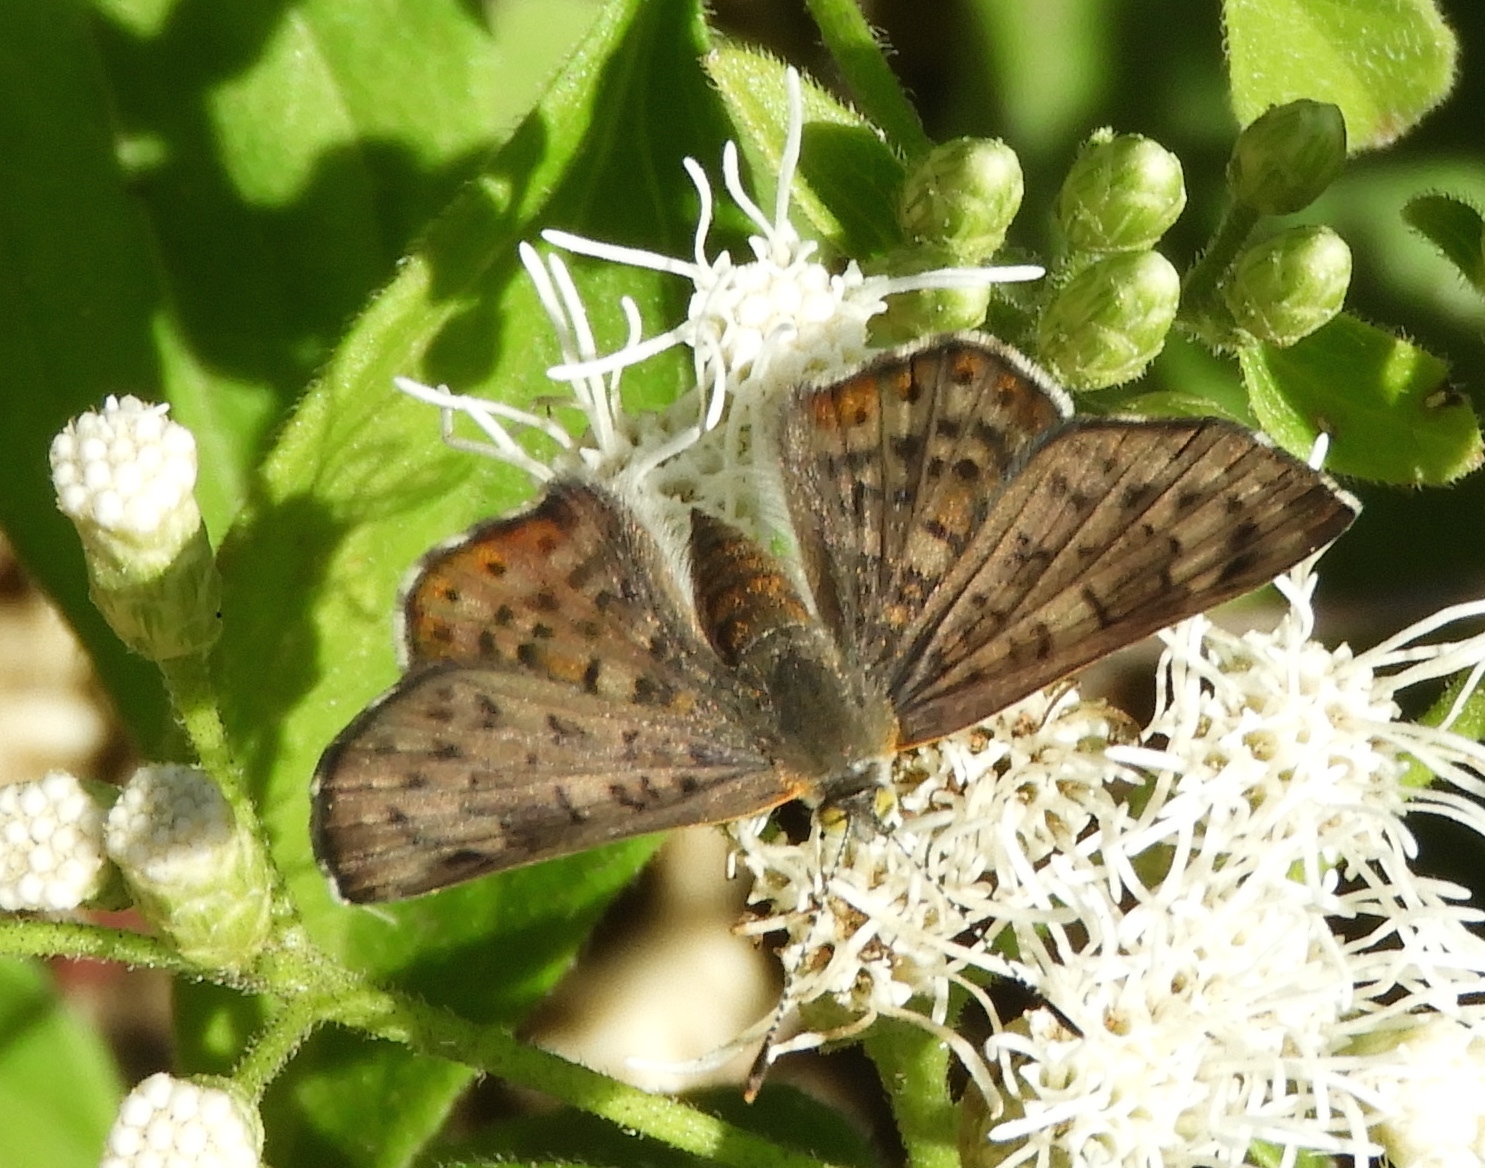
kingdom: Animalia
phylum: Arthropoda
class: Insecta
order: Lepidoptera
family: Riodinidae
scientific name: Riodinidae
